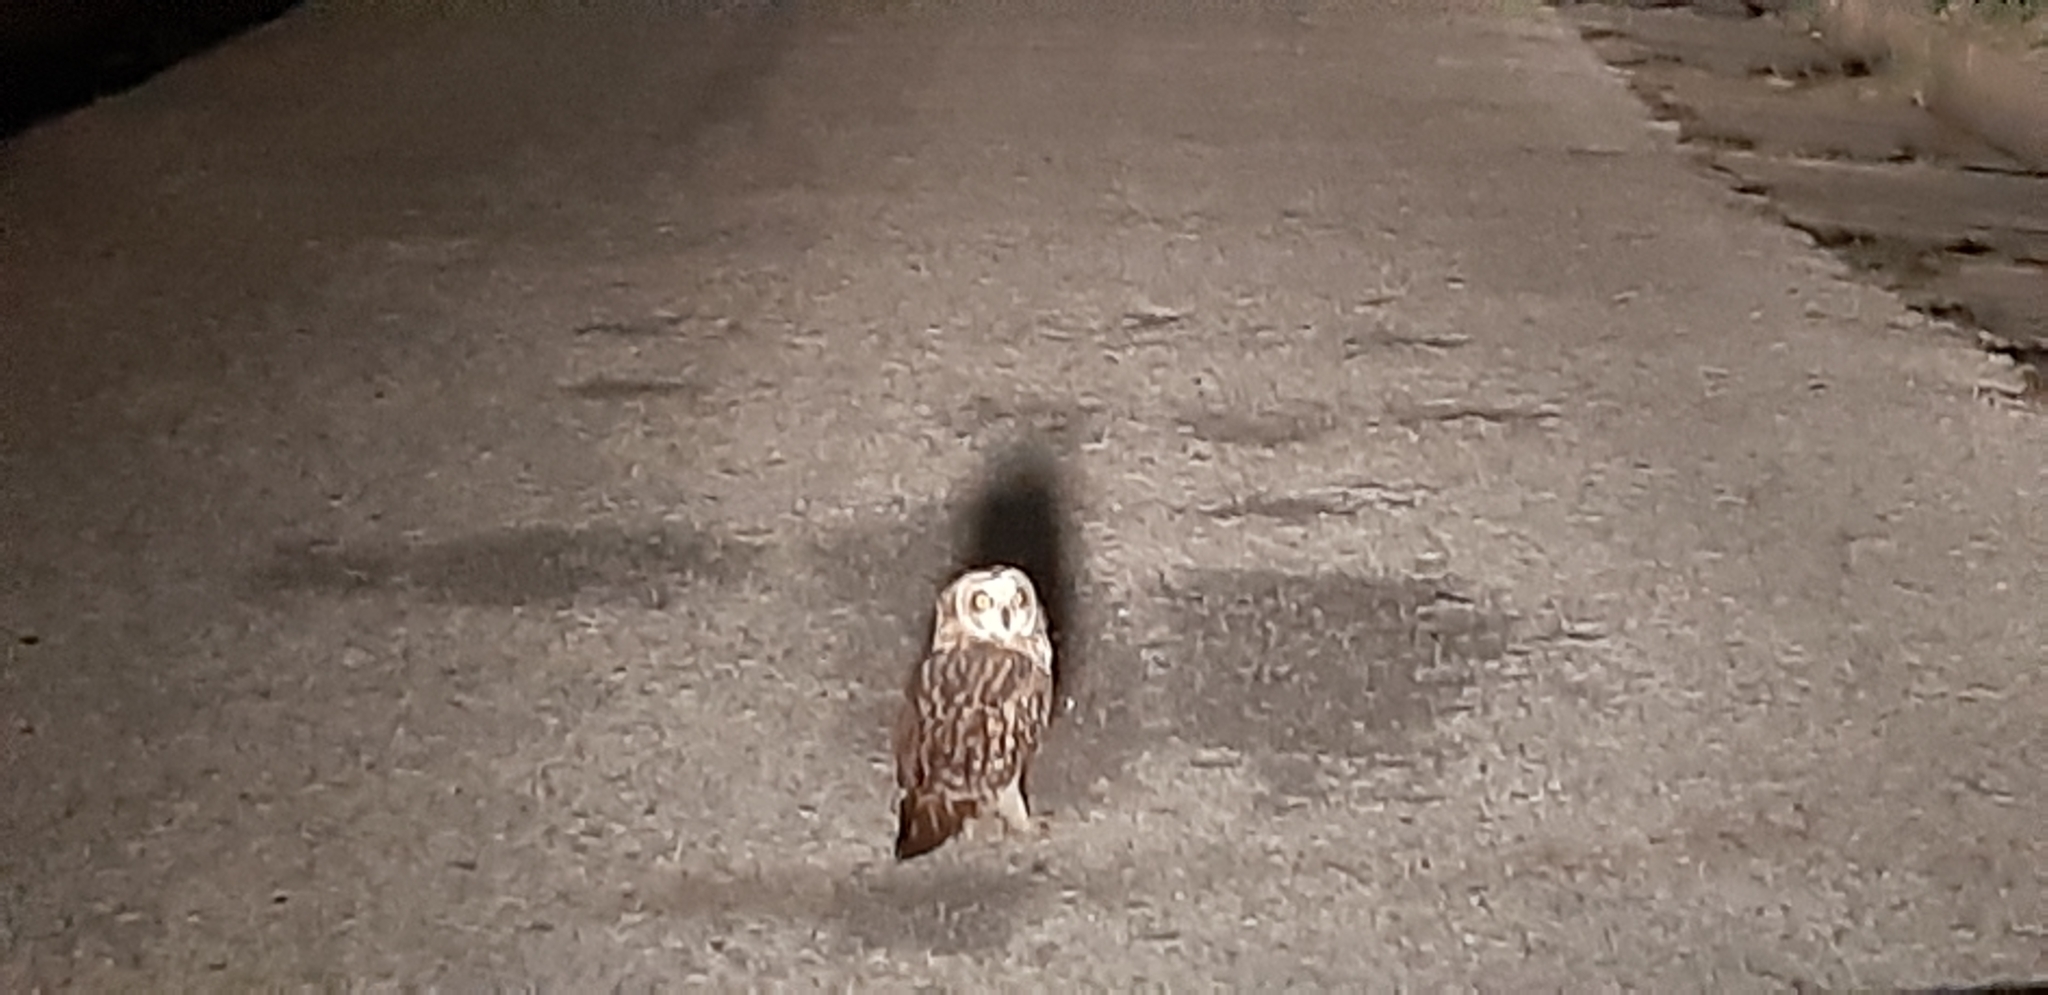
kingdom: Animalia
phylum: Chordata
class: Aves
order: Strigiformes
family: Strigidae
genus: Asio
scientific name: Asio flammeus
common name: Short-eared owl
